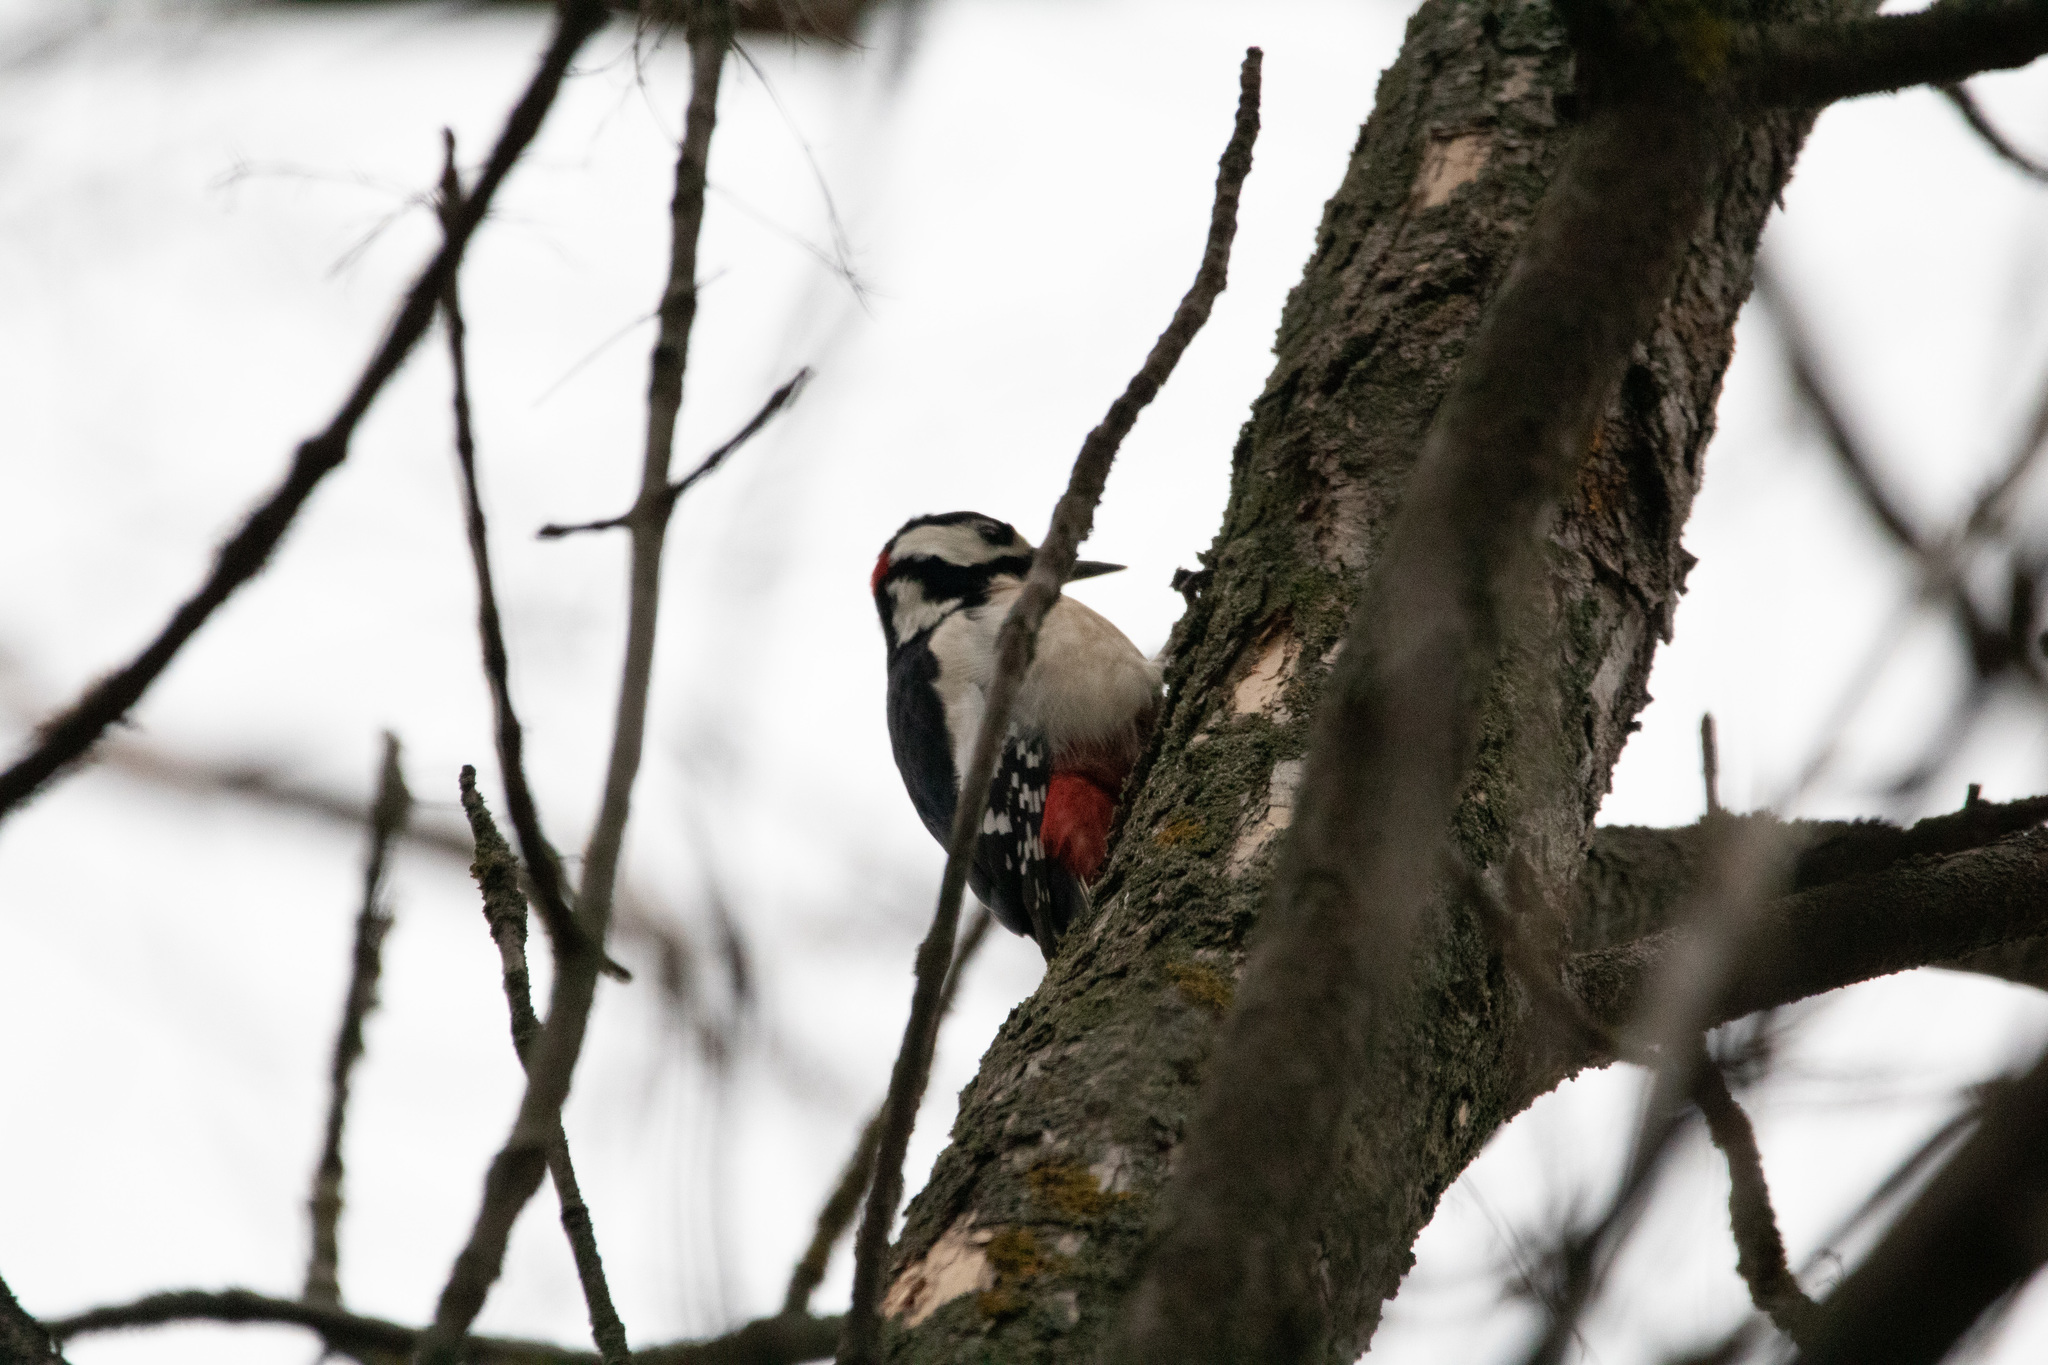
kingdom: Animalia
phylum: Chordata
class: Aves
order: Piciformes
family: Picidae
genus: Dendrocopos
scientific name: Dendrocopos major
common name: Great spotted woodpecker
